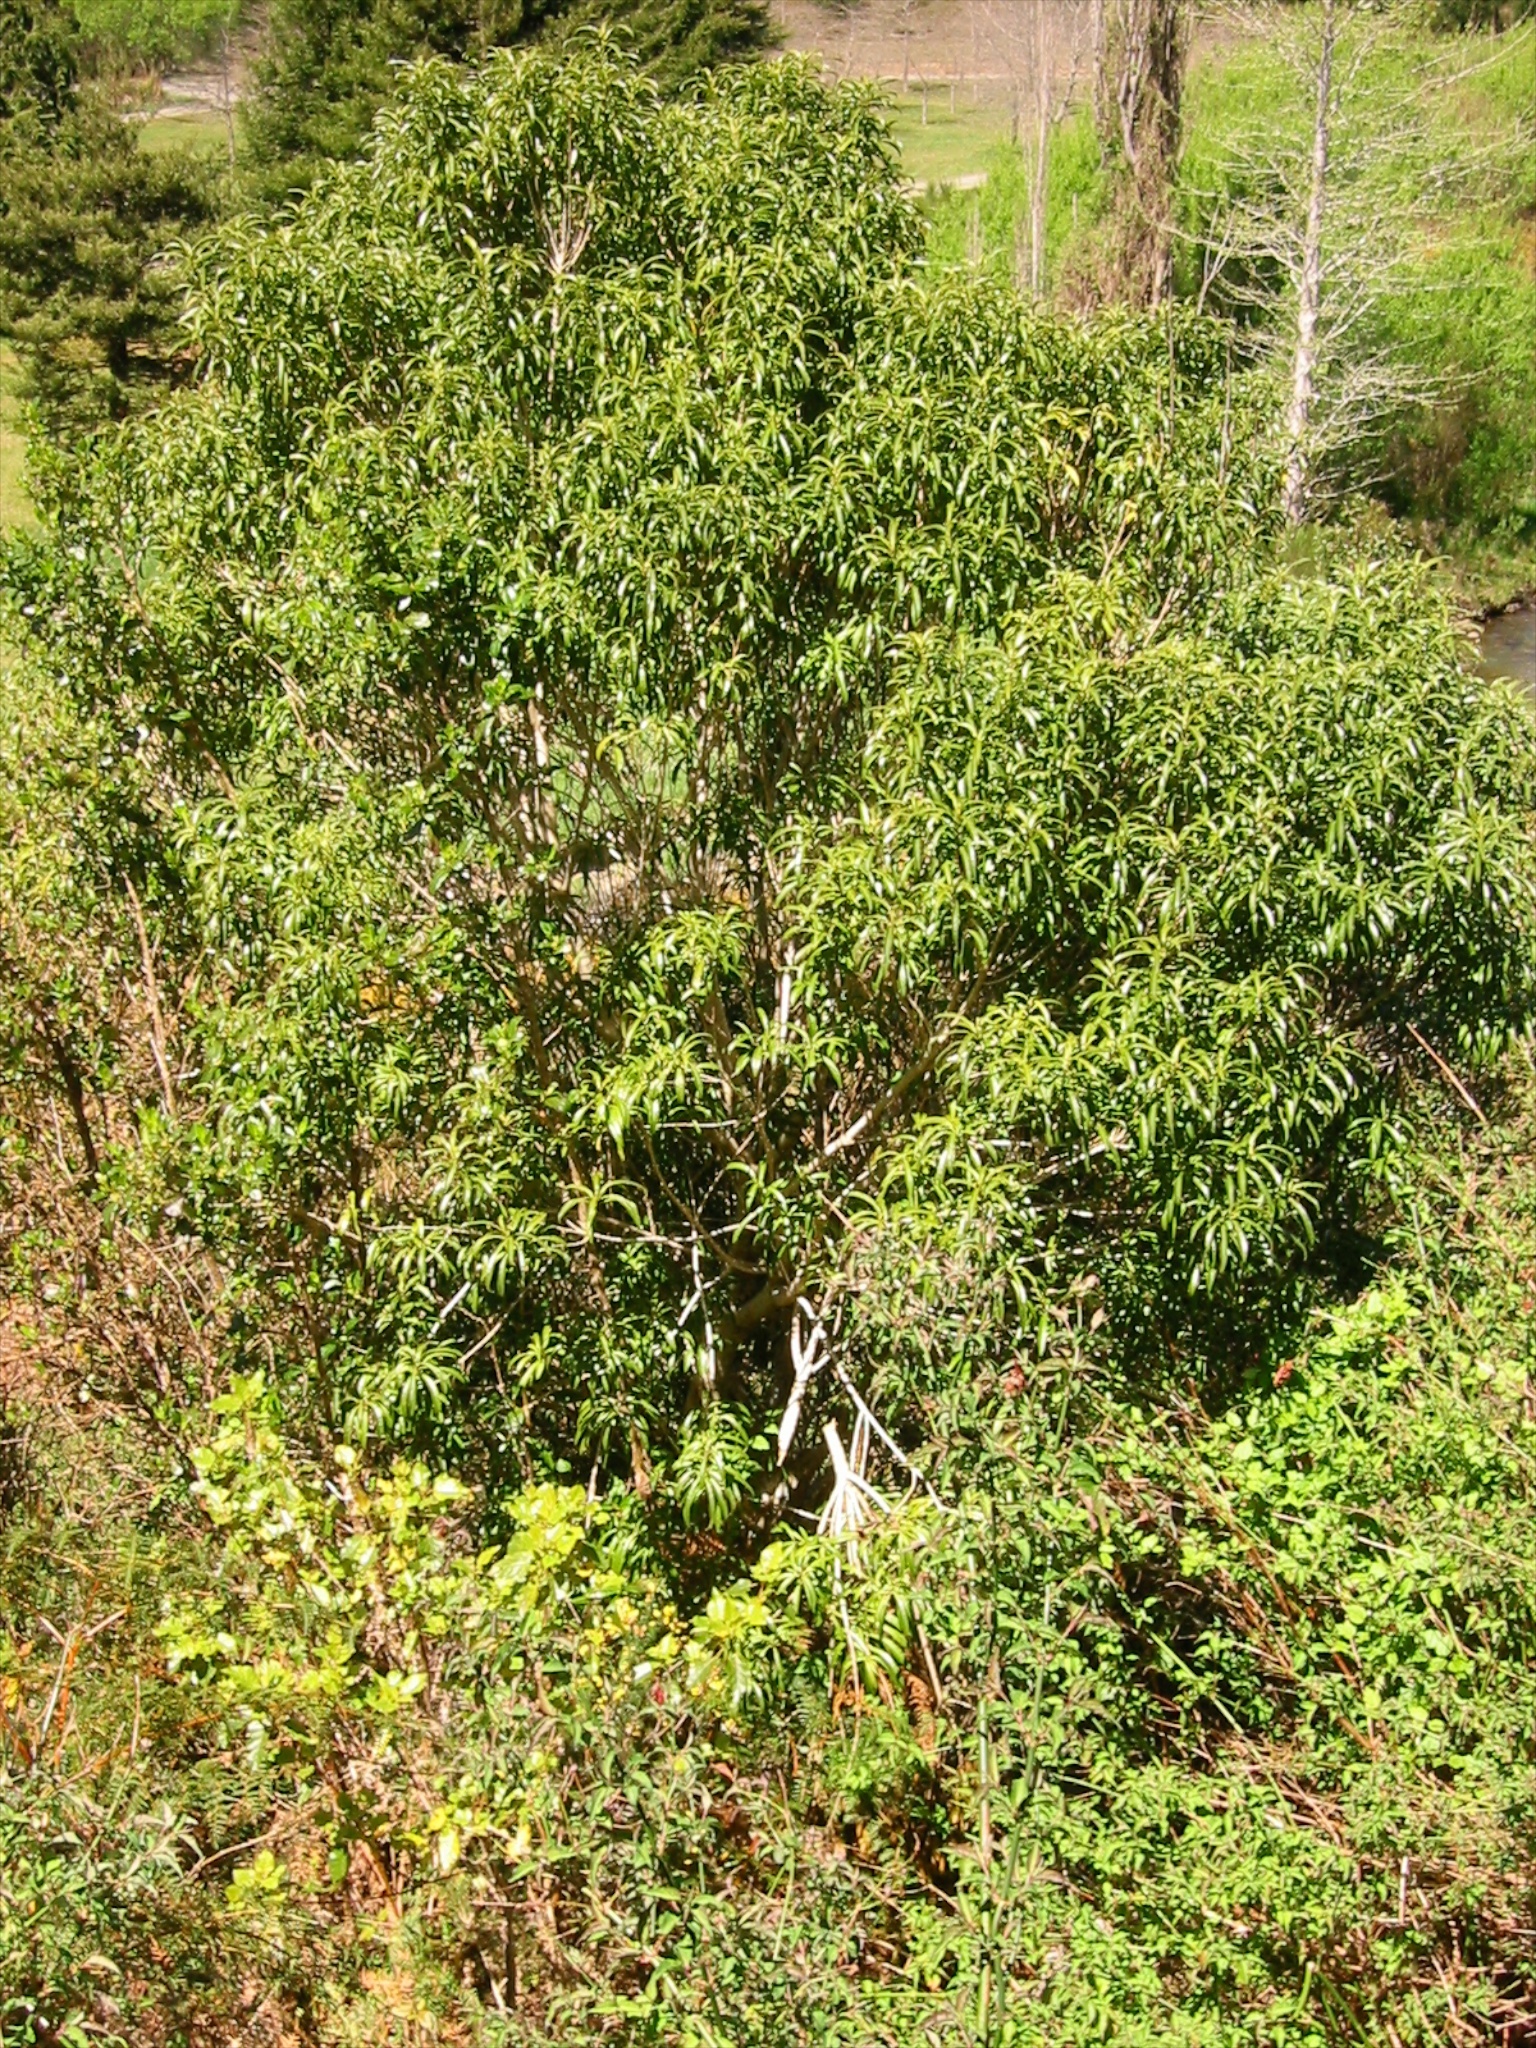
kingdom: Plantae
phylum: Tracheophyta
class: Magnoliopsida
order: Malpighiales
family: Violaceae
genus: Melicytus
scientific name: Melicytus lanceolatus
